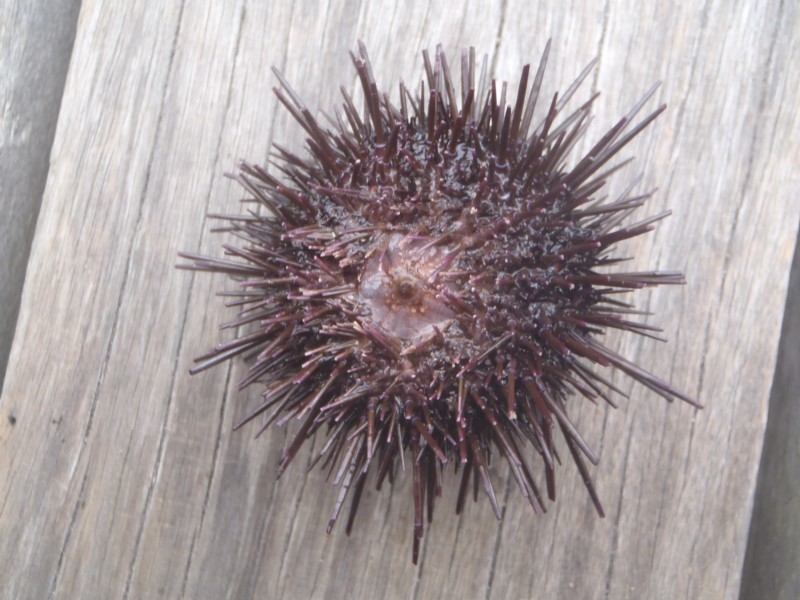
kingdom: Animalia
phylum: Echinodermata
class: Echinoidea
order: Camarodonta
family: Echinometridae
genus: Heliocidaris
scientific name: Heliocidaris erythrogramma
